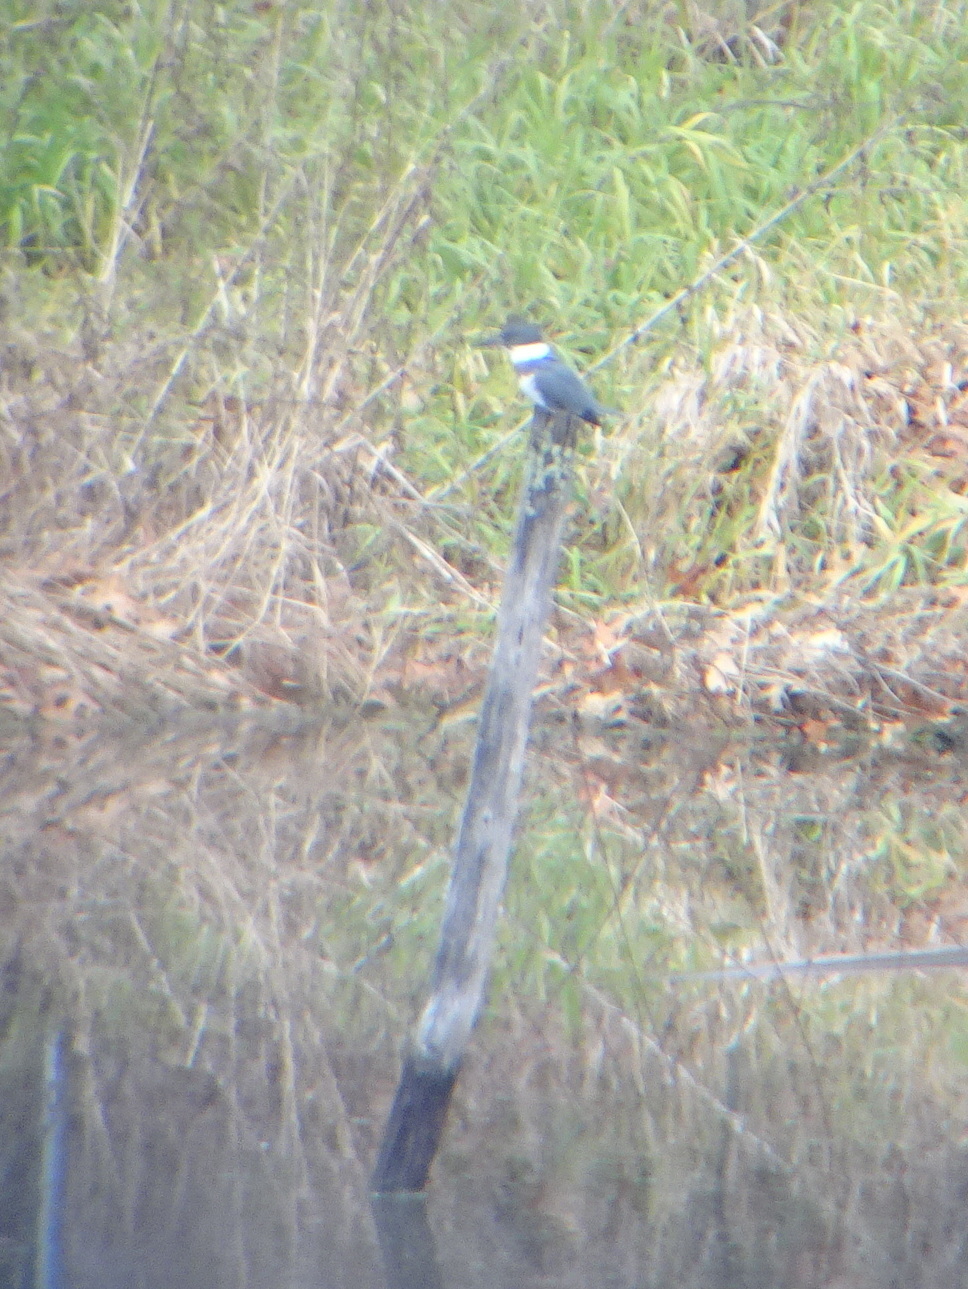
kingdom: Animalia
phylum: Chordata
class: Aves
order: Coraciiformes
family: Alcedinidae
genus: Megaceryle
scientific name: Megaceryle alcyon
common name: Belted kingfisher
